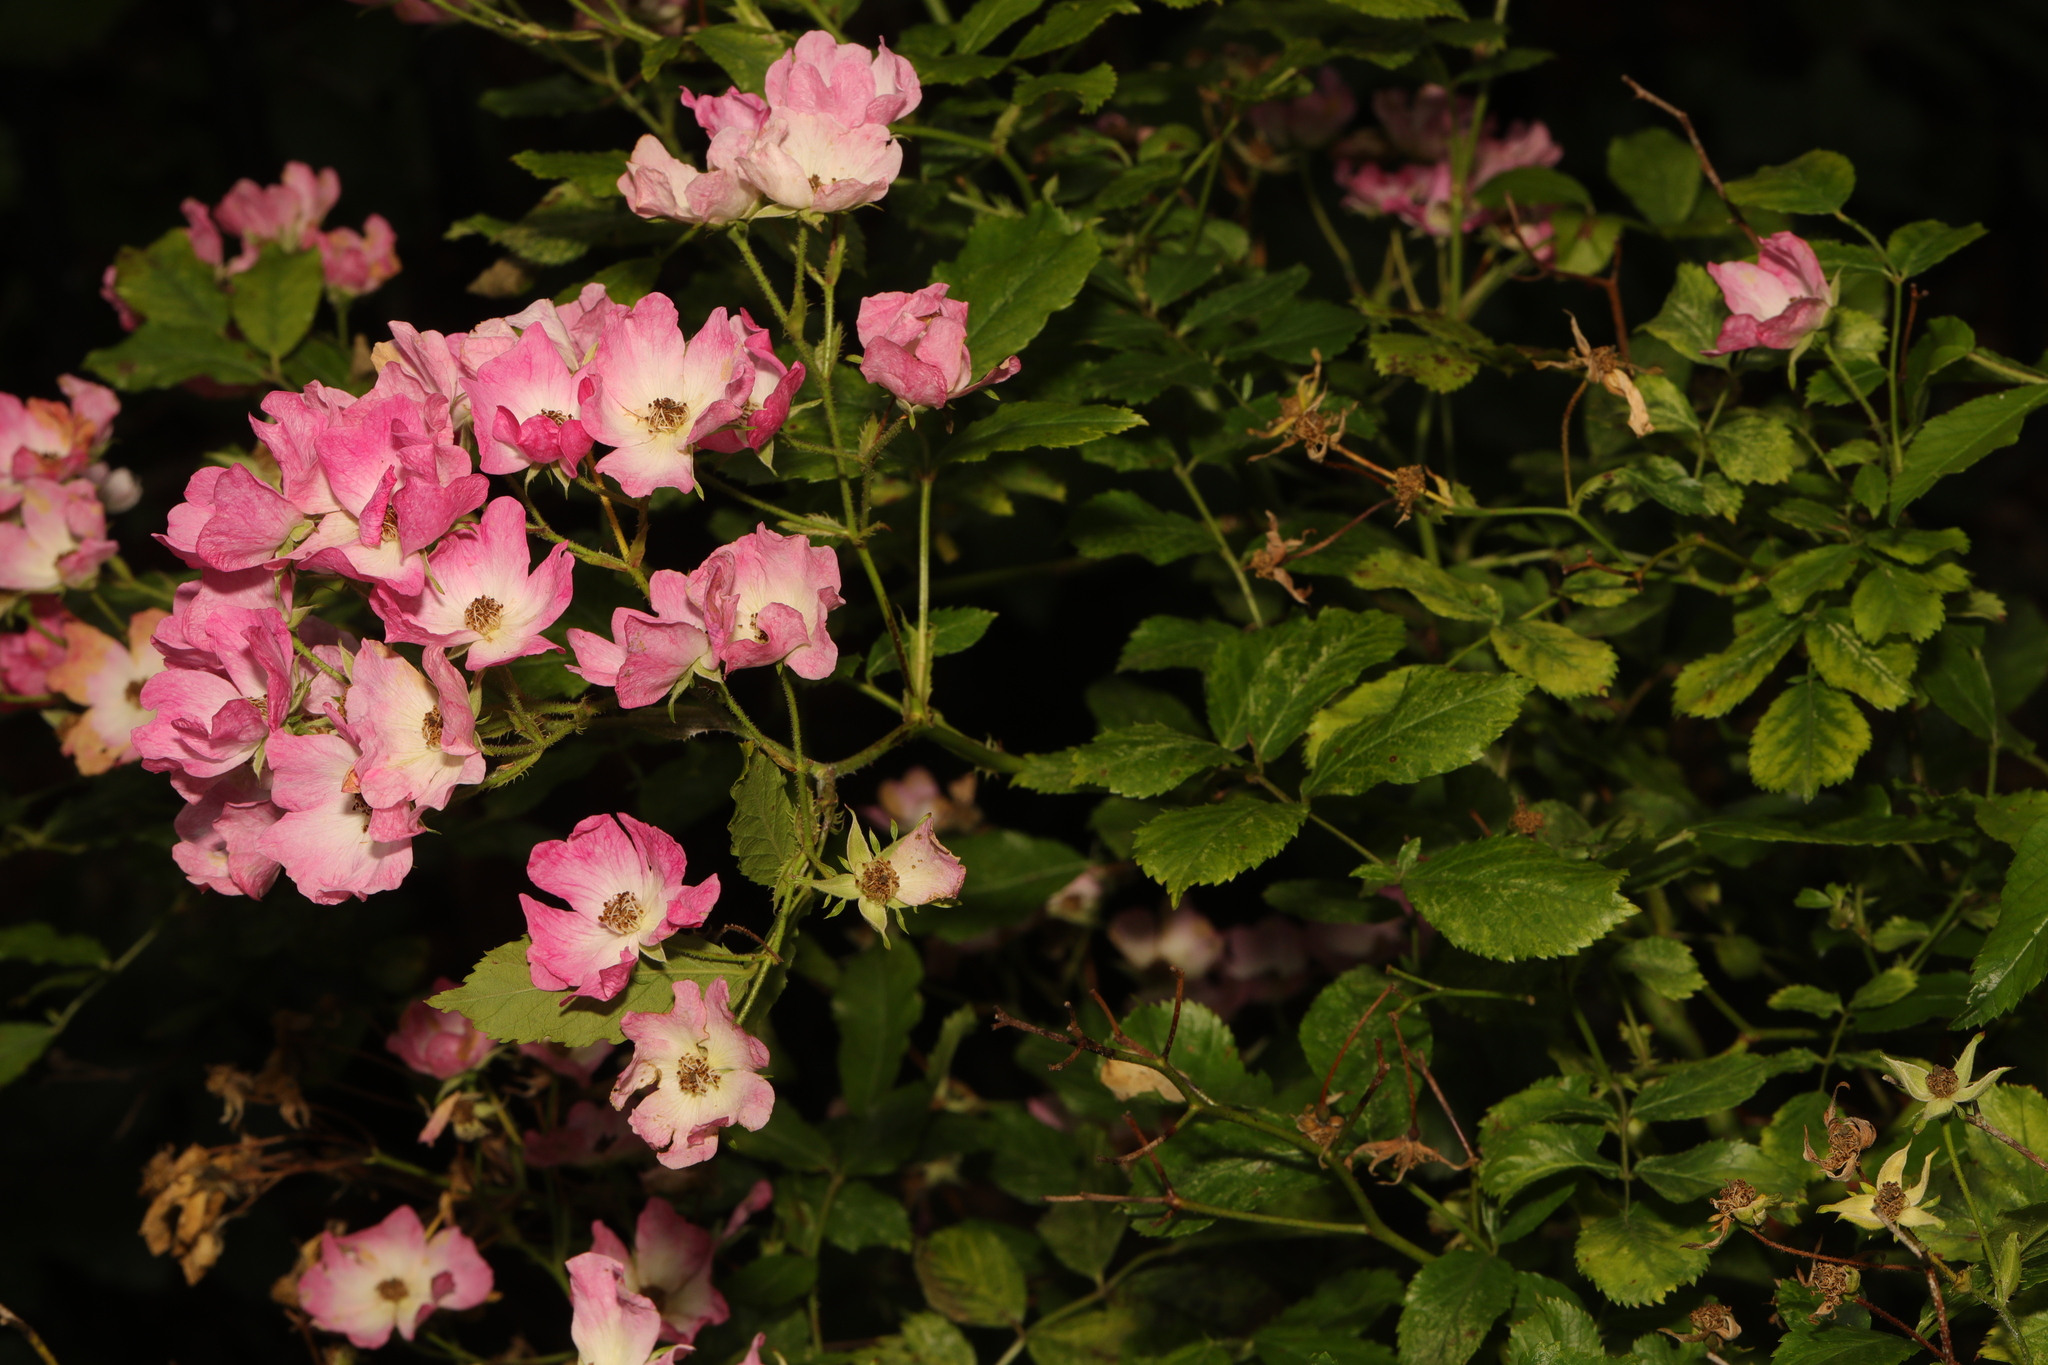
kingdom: Plantae
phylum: Tracheophyta
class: Magnoliopsida
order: Rosales
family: Rosaceae
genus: Rosa
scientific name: Rosa multiflora
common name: Multiflora rose
